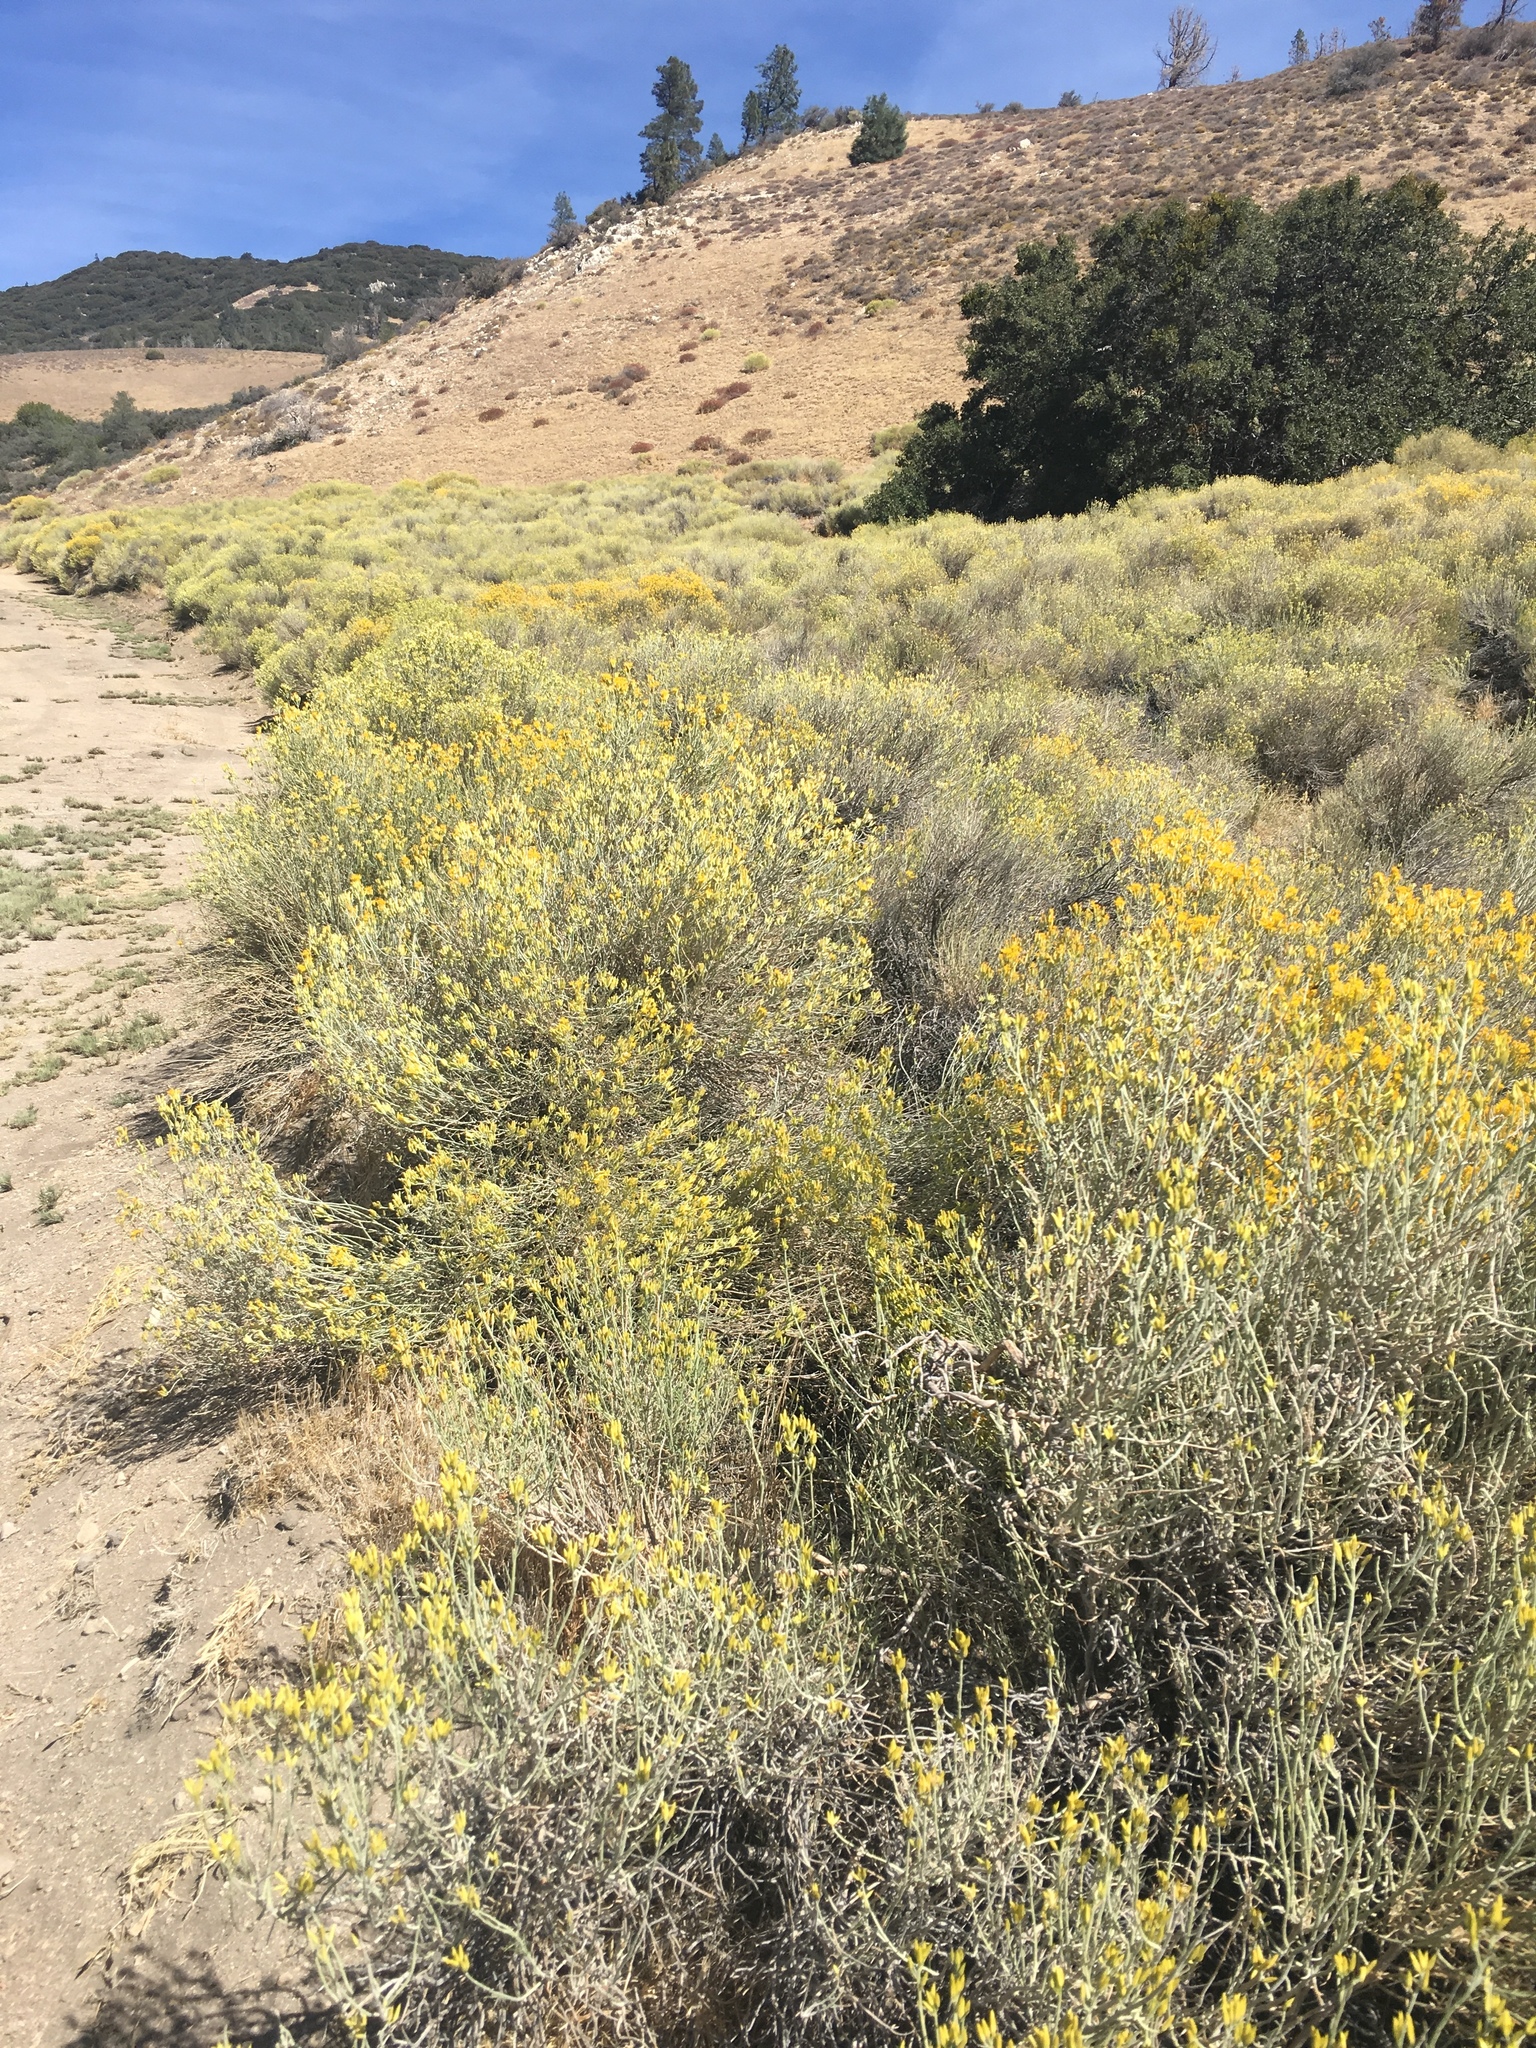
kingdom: Plantae
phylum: Tracheophyta
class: Magnoliopsida
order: Asterales
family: Asteraceae
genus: Ericameria
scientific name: Ericameria nauseosa
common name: Rubber rabbitbrush
